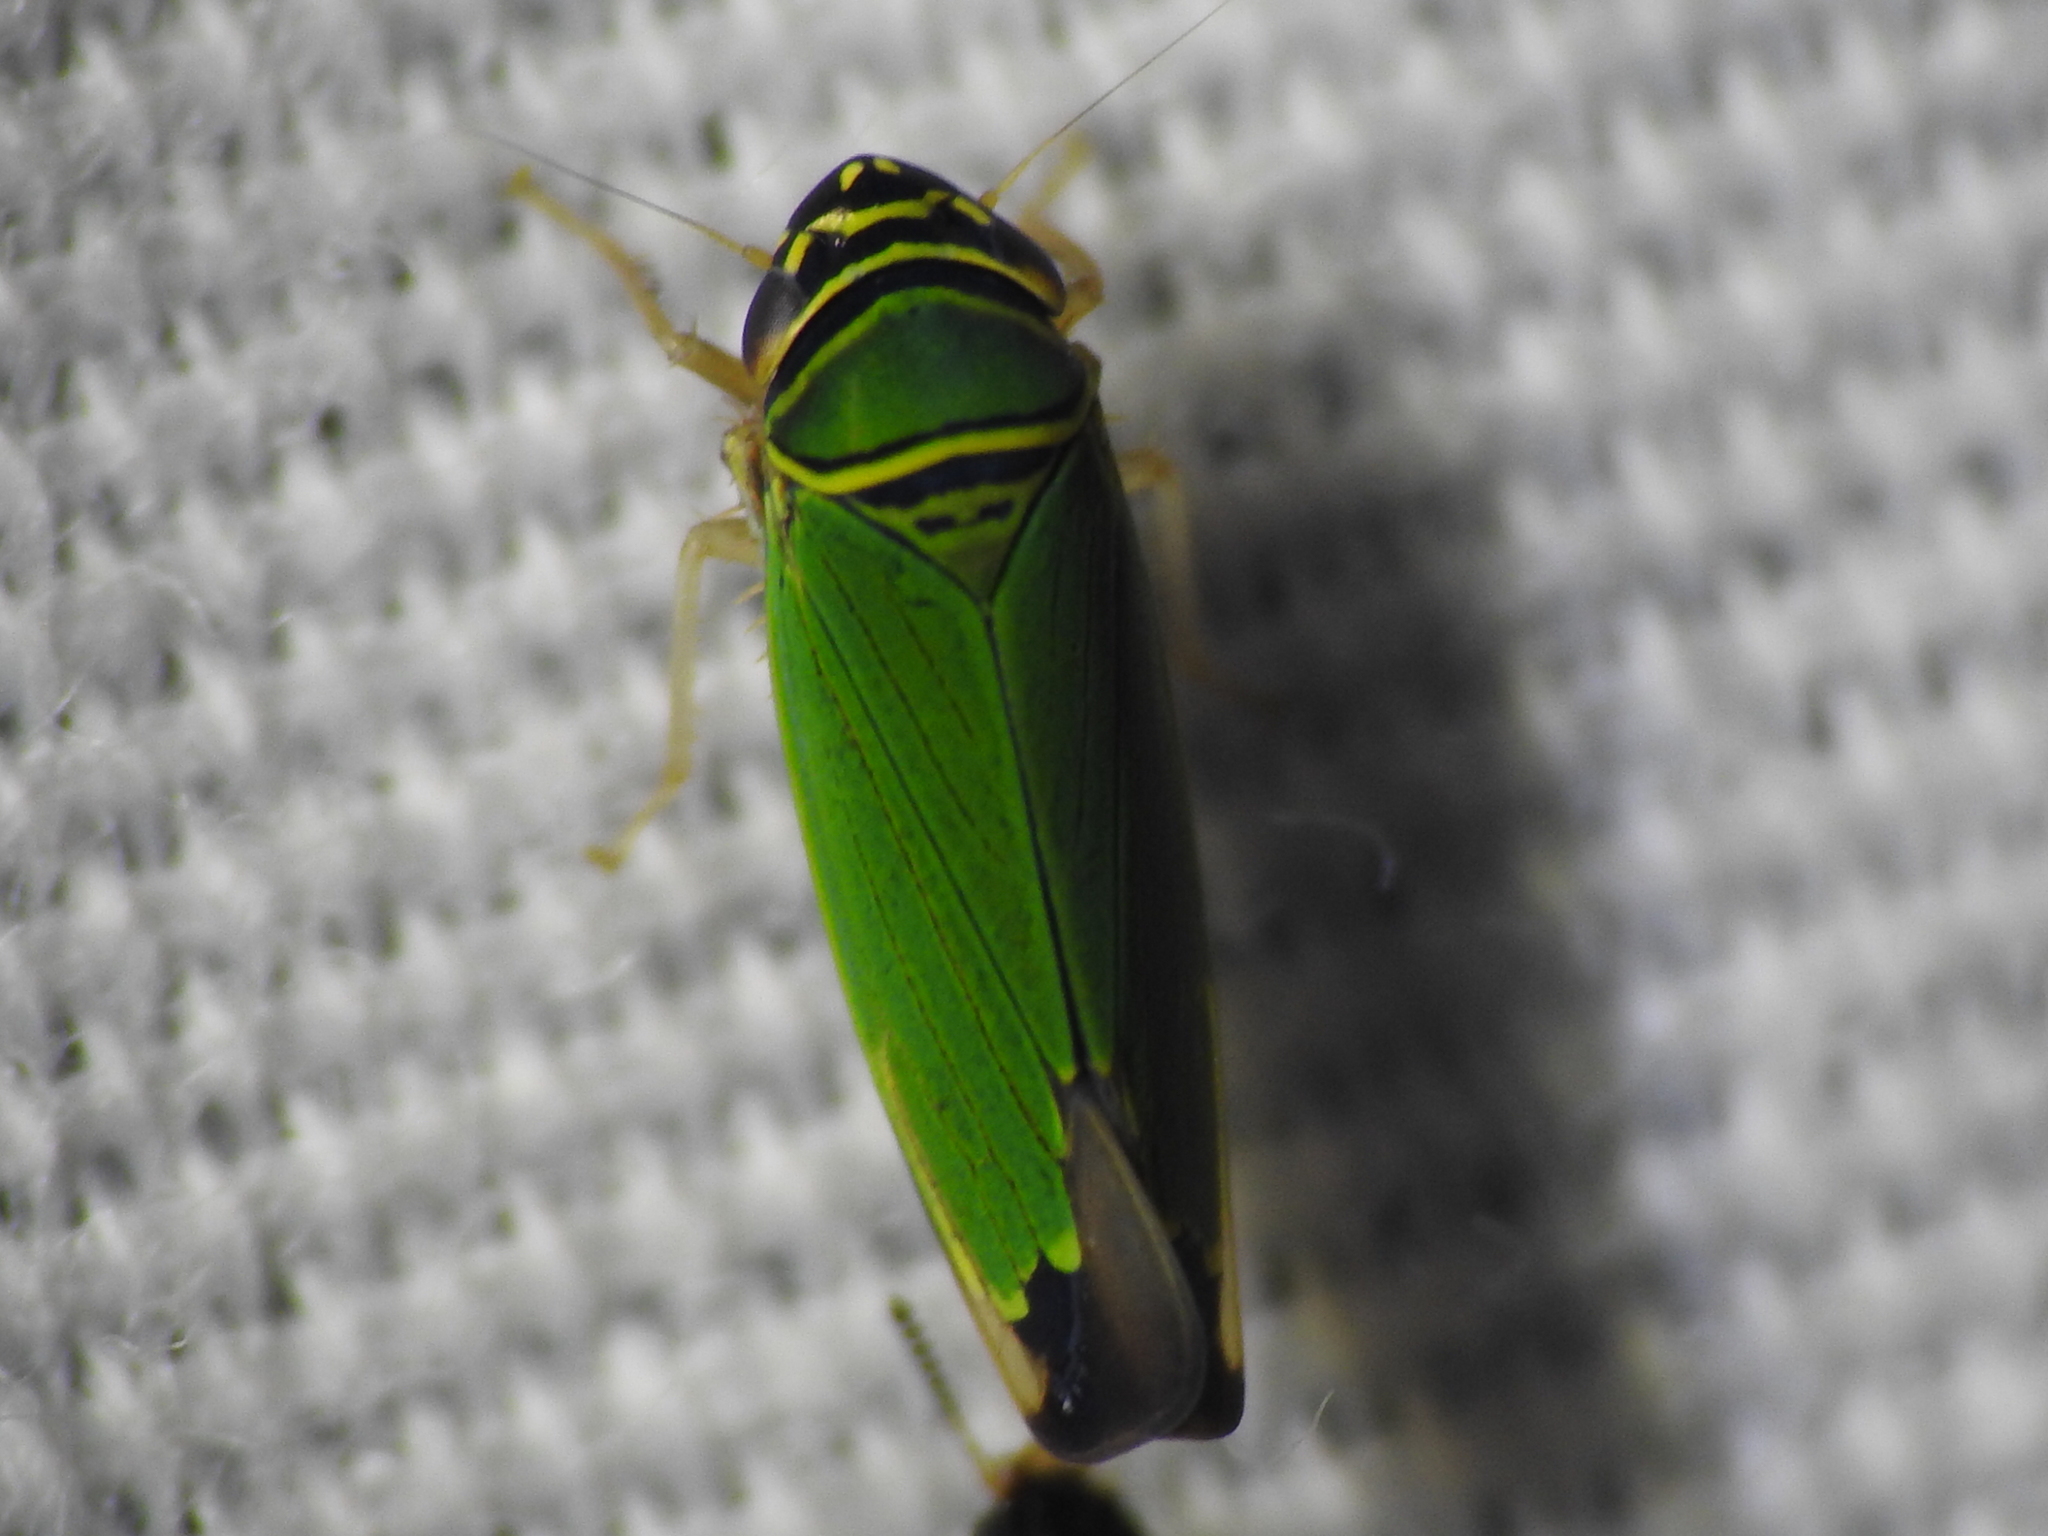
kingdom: Animalia
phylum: Arthropoda
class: Insecta
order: Hemiptera
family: Cicadellidae
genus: Tylozygus
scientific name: Tylozygus geometricus
